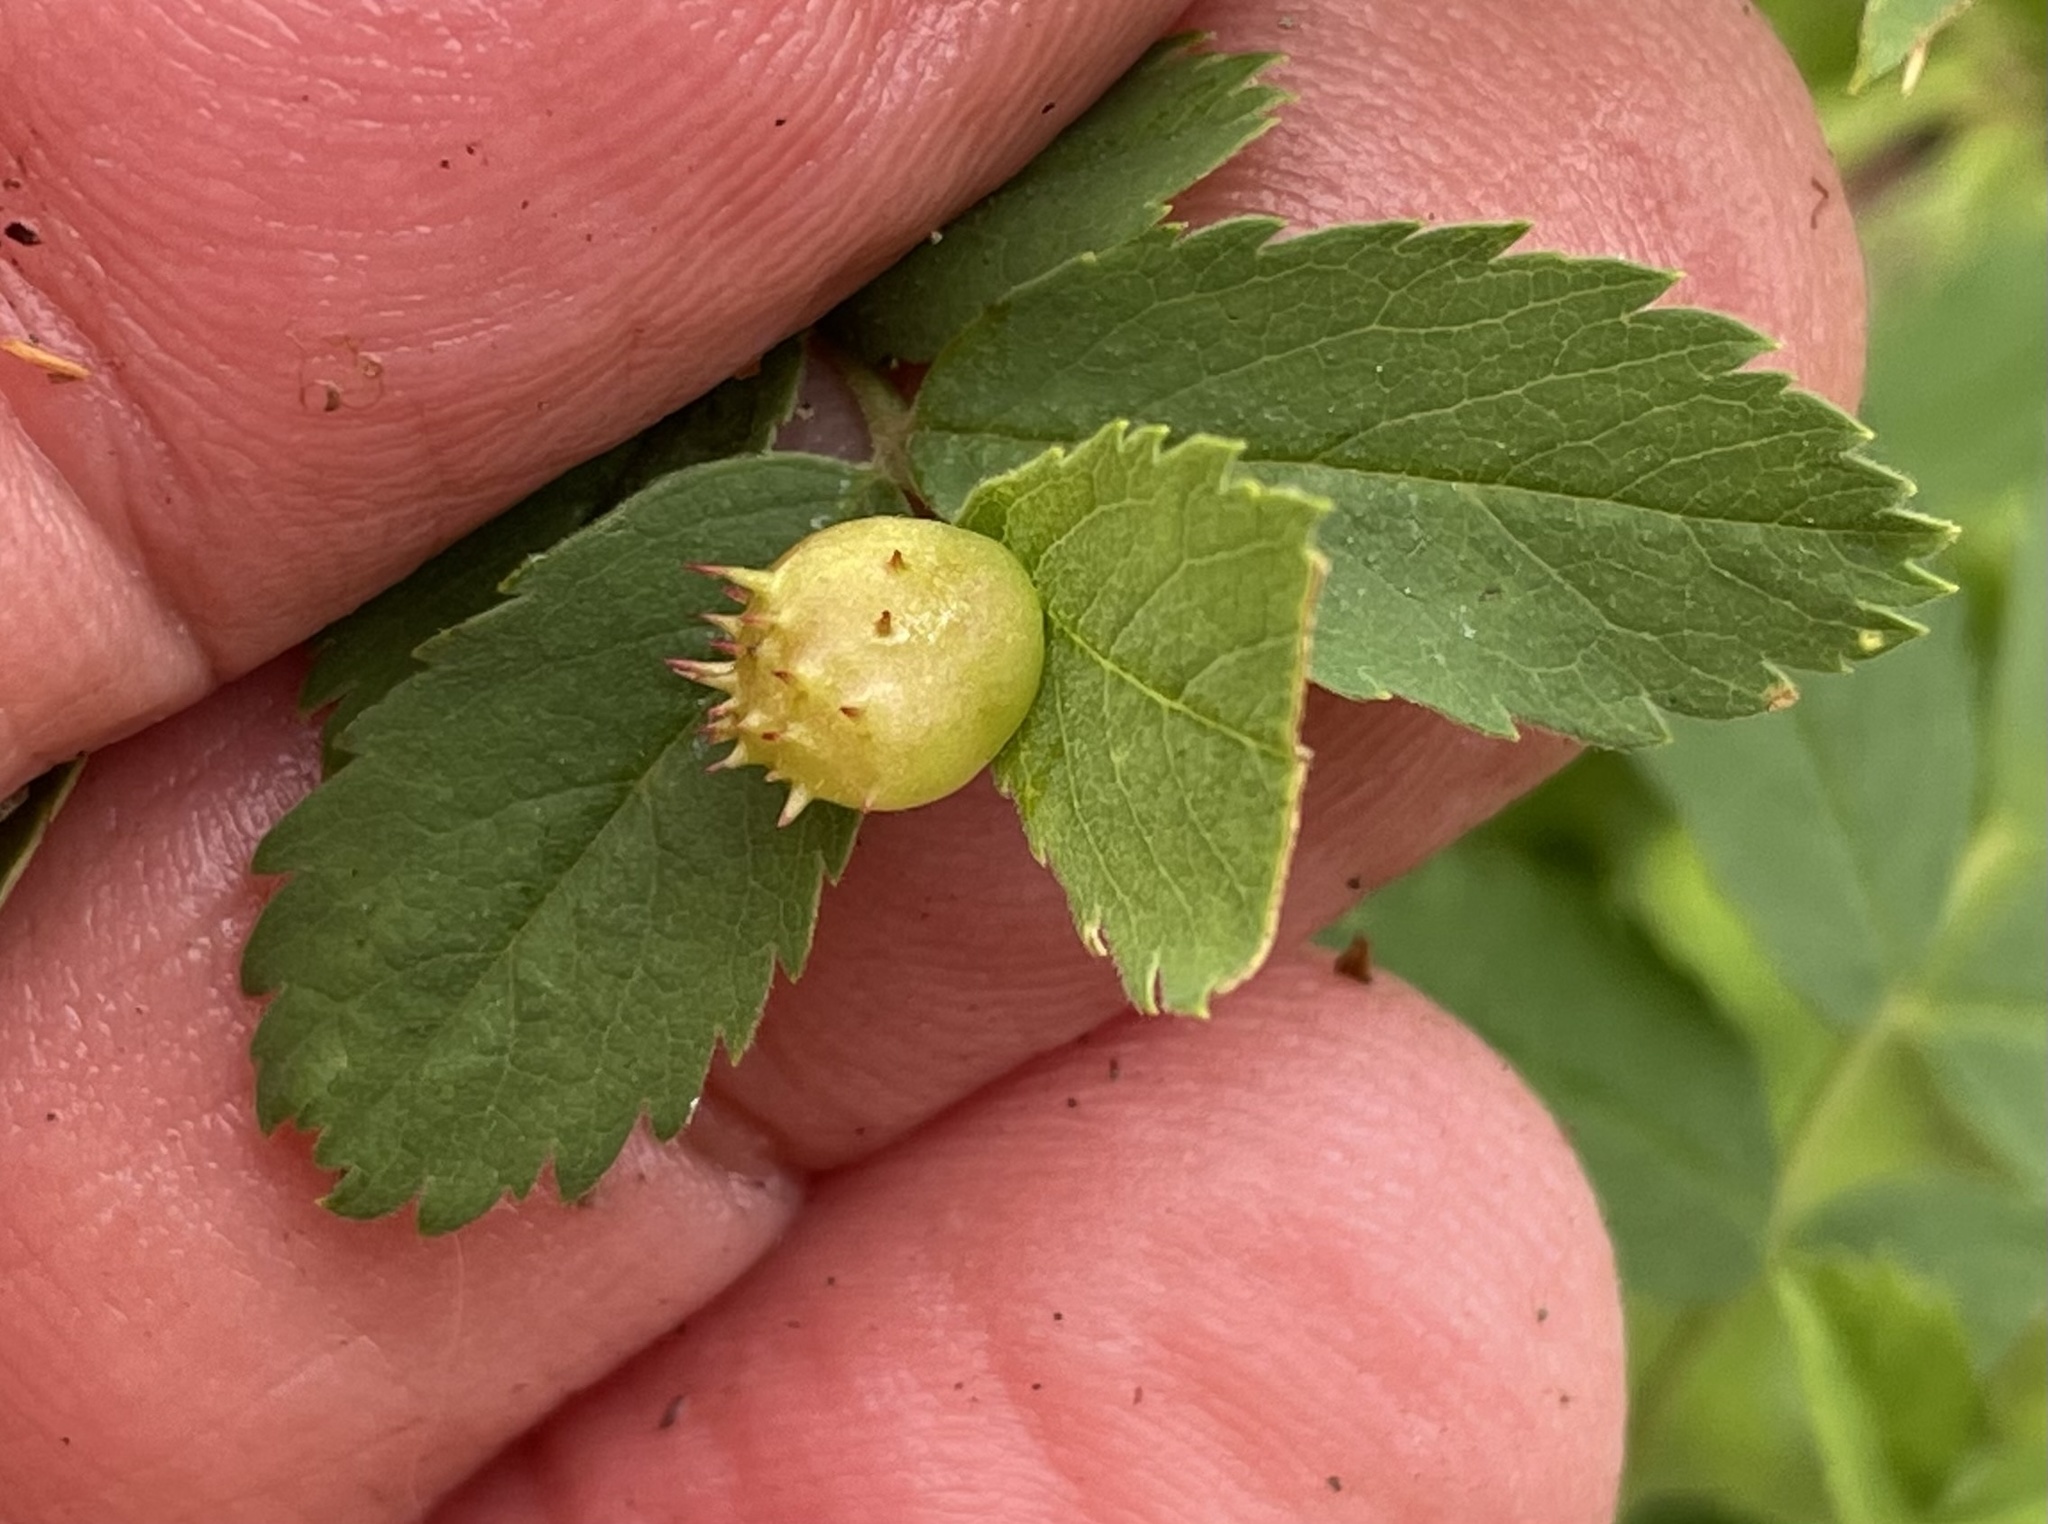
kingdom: Animalia
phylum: Arthropoda
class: Insecta
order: Hymenoptera
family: Cynipidae
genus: Diplolepis
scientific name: Diplolepis polita
